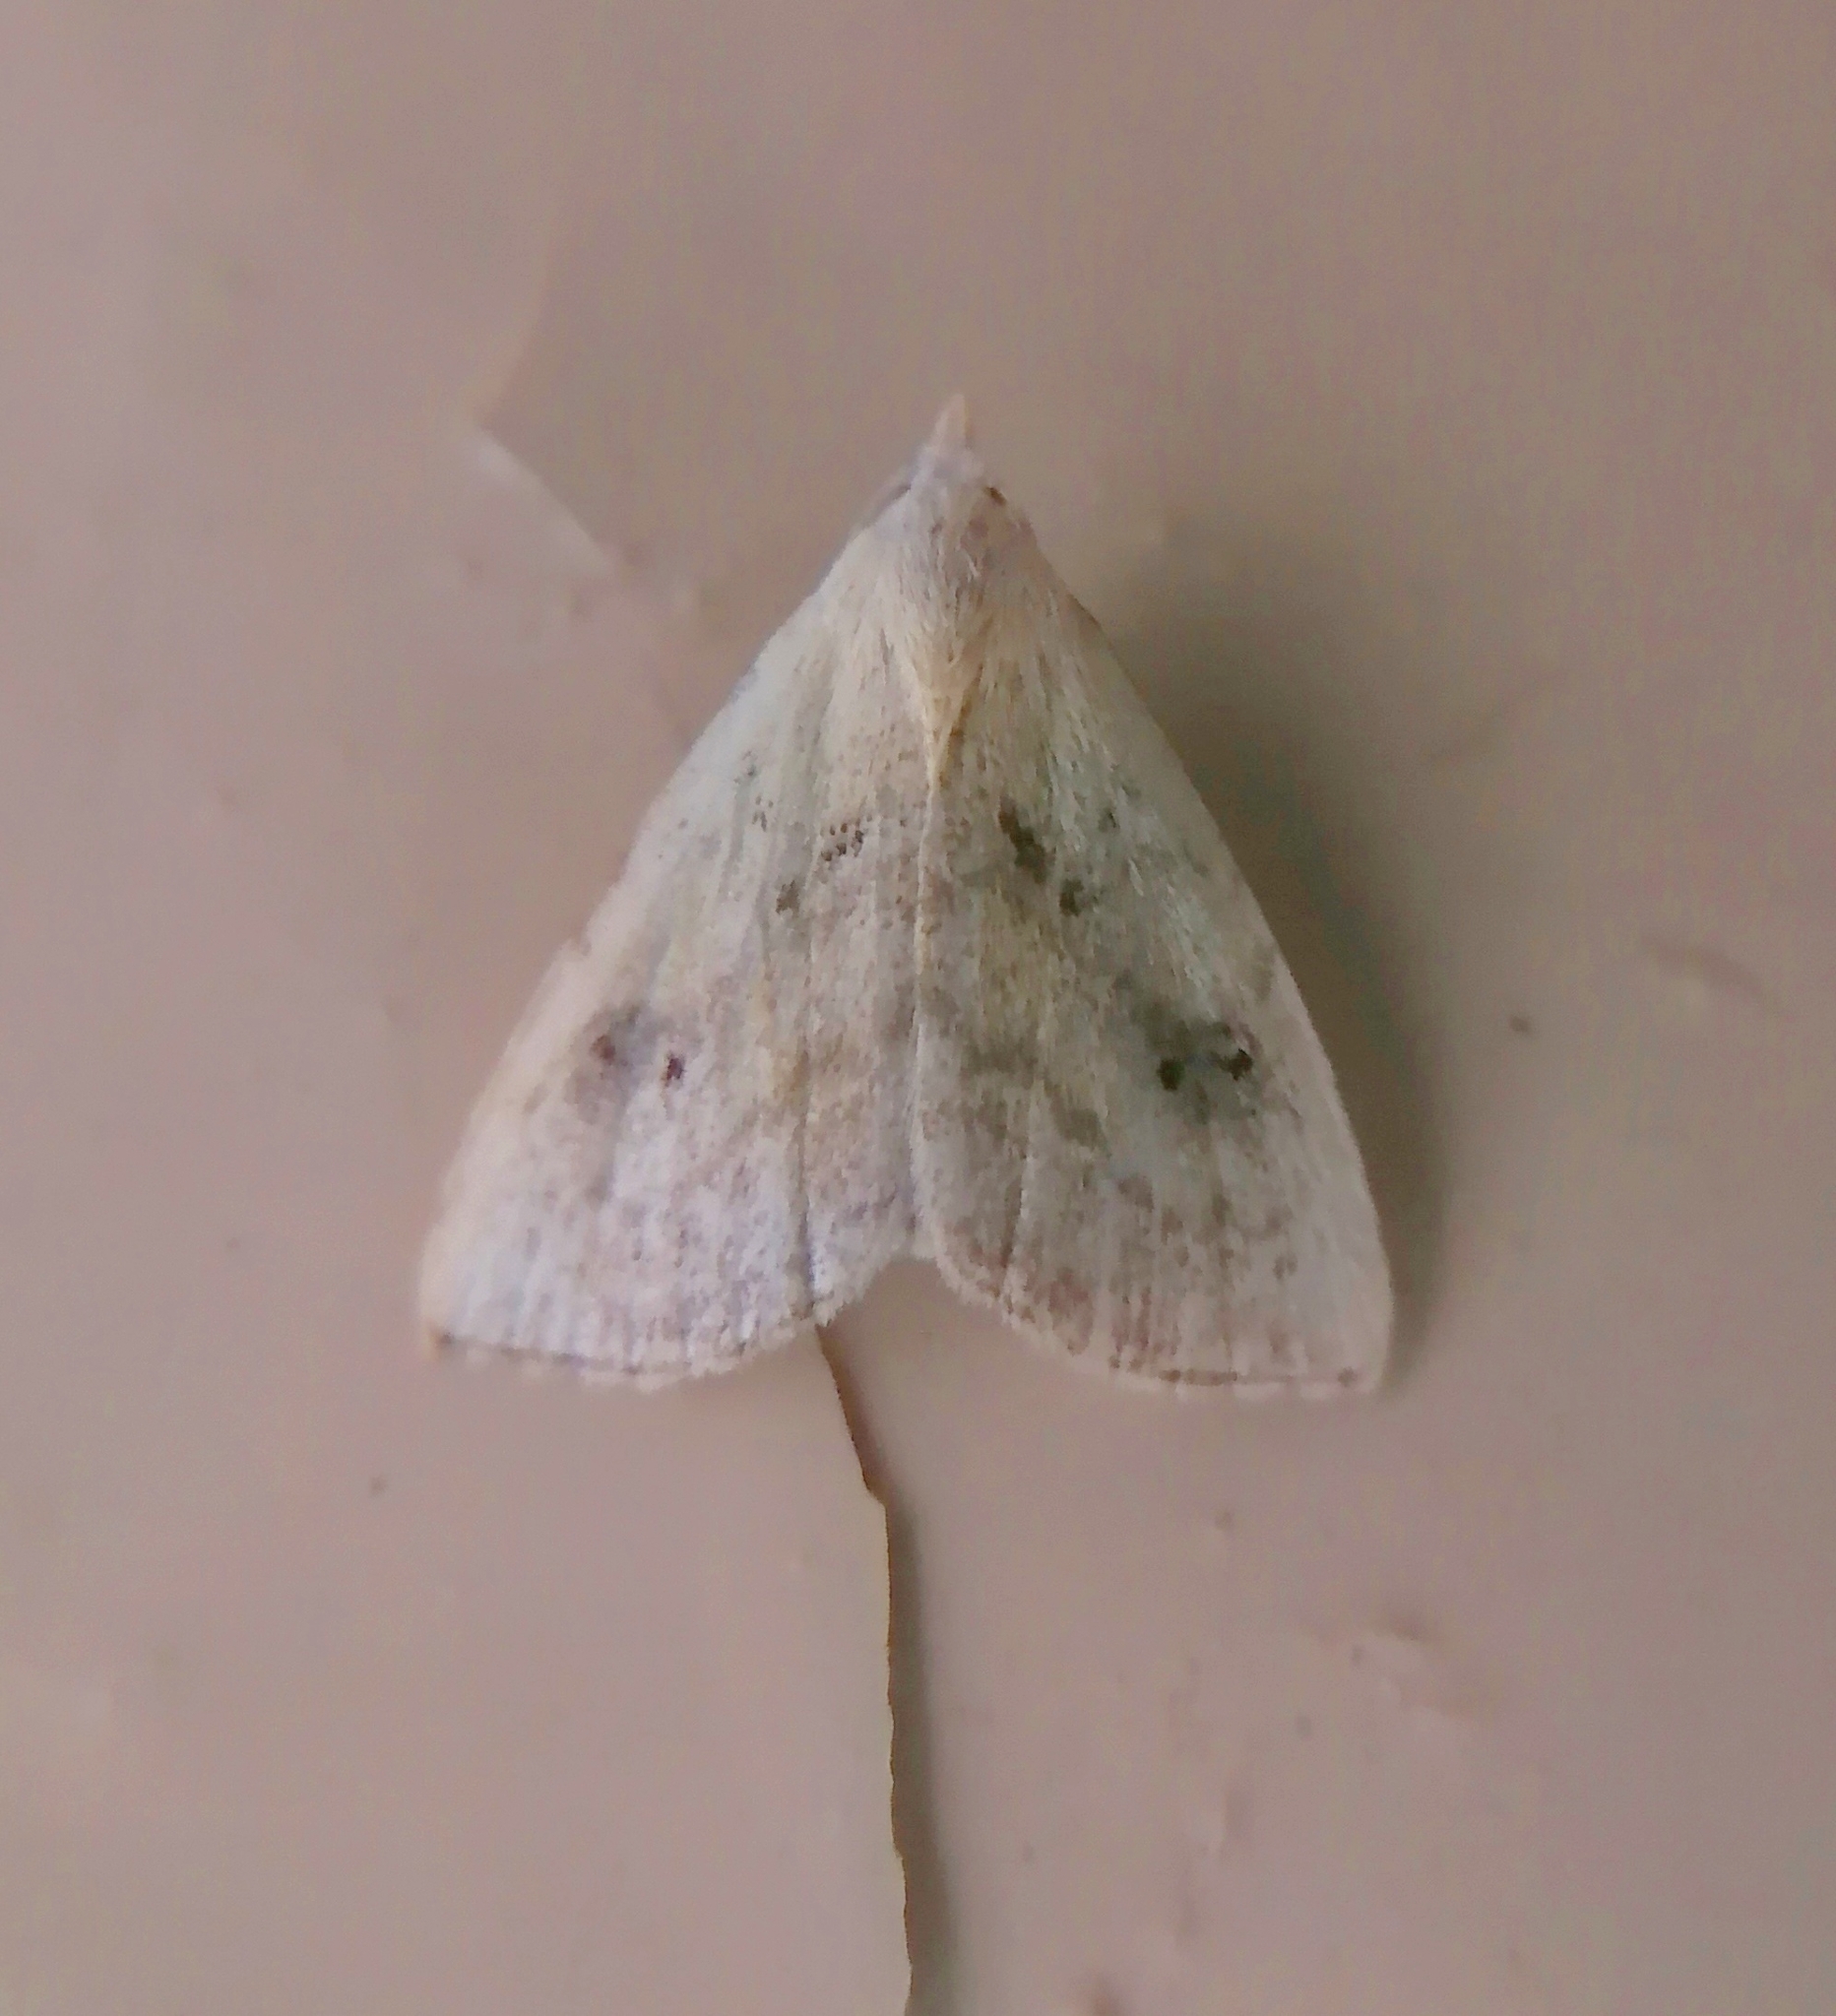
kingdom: Animalia
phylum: Arthropoda
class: Insecta
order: Lepidoptera
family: Erebidae
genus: Rivula
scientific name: Rivula sericealis
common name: Straw dot
